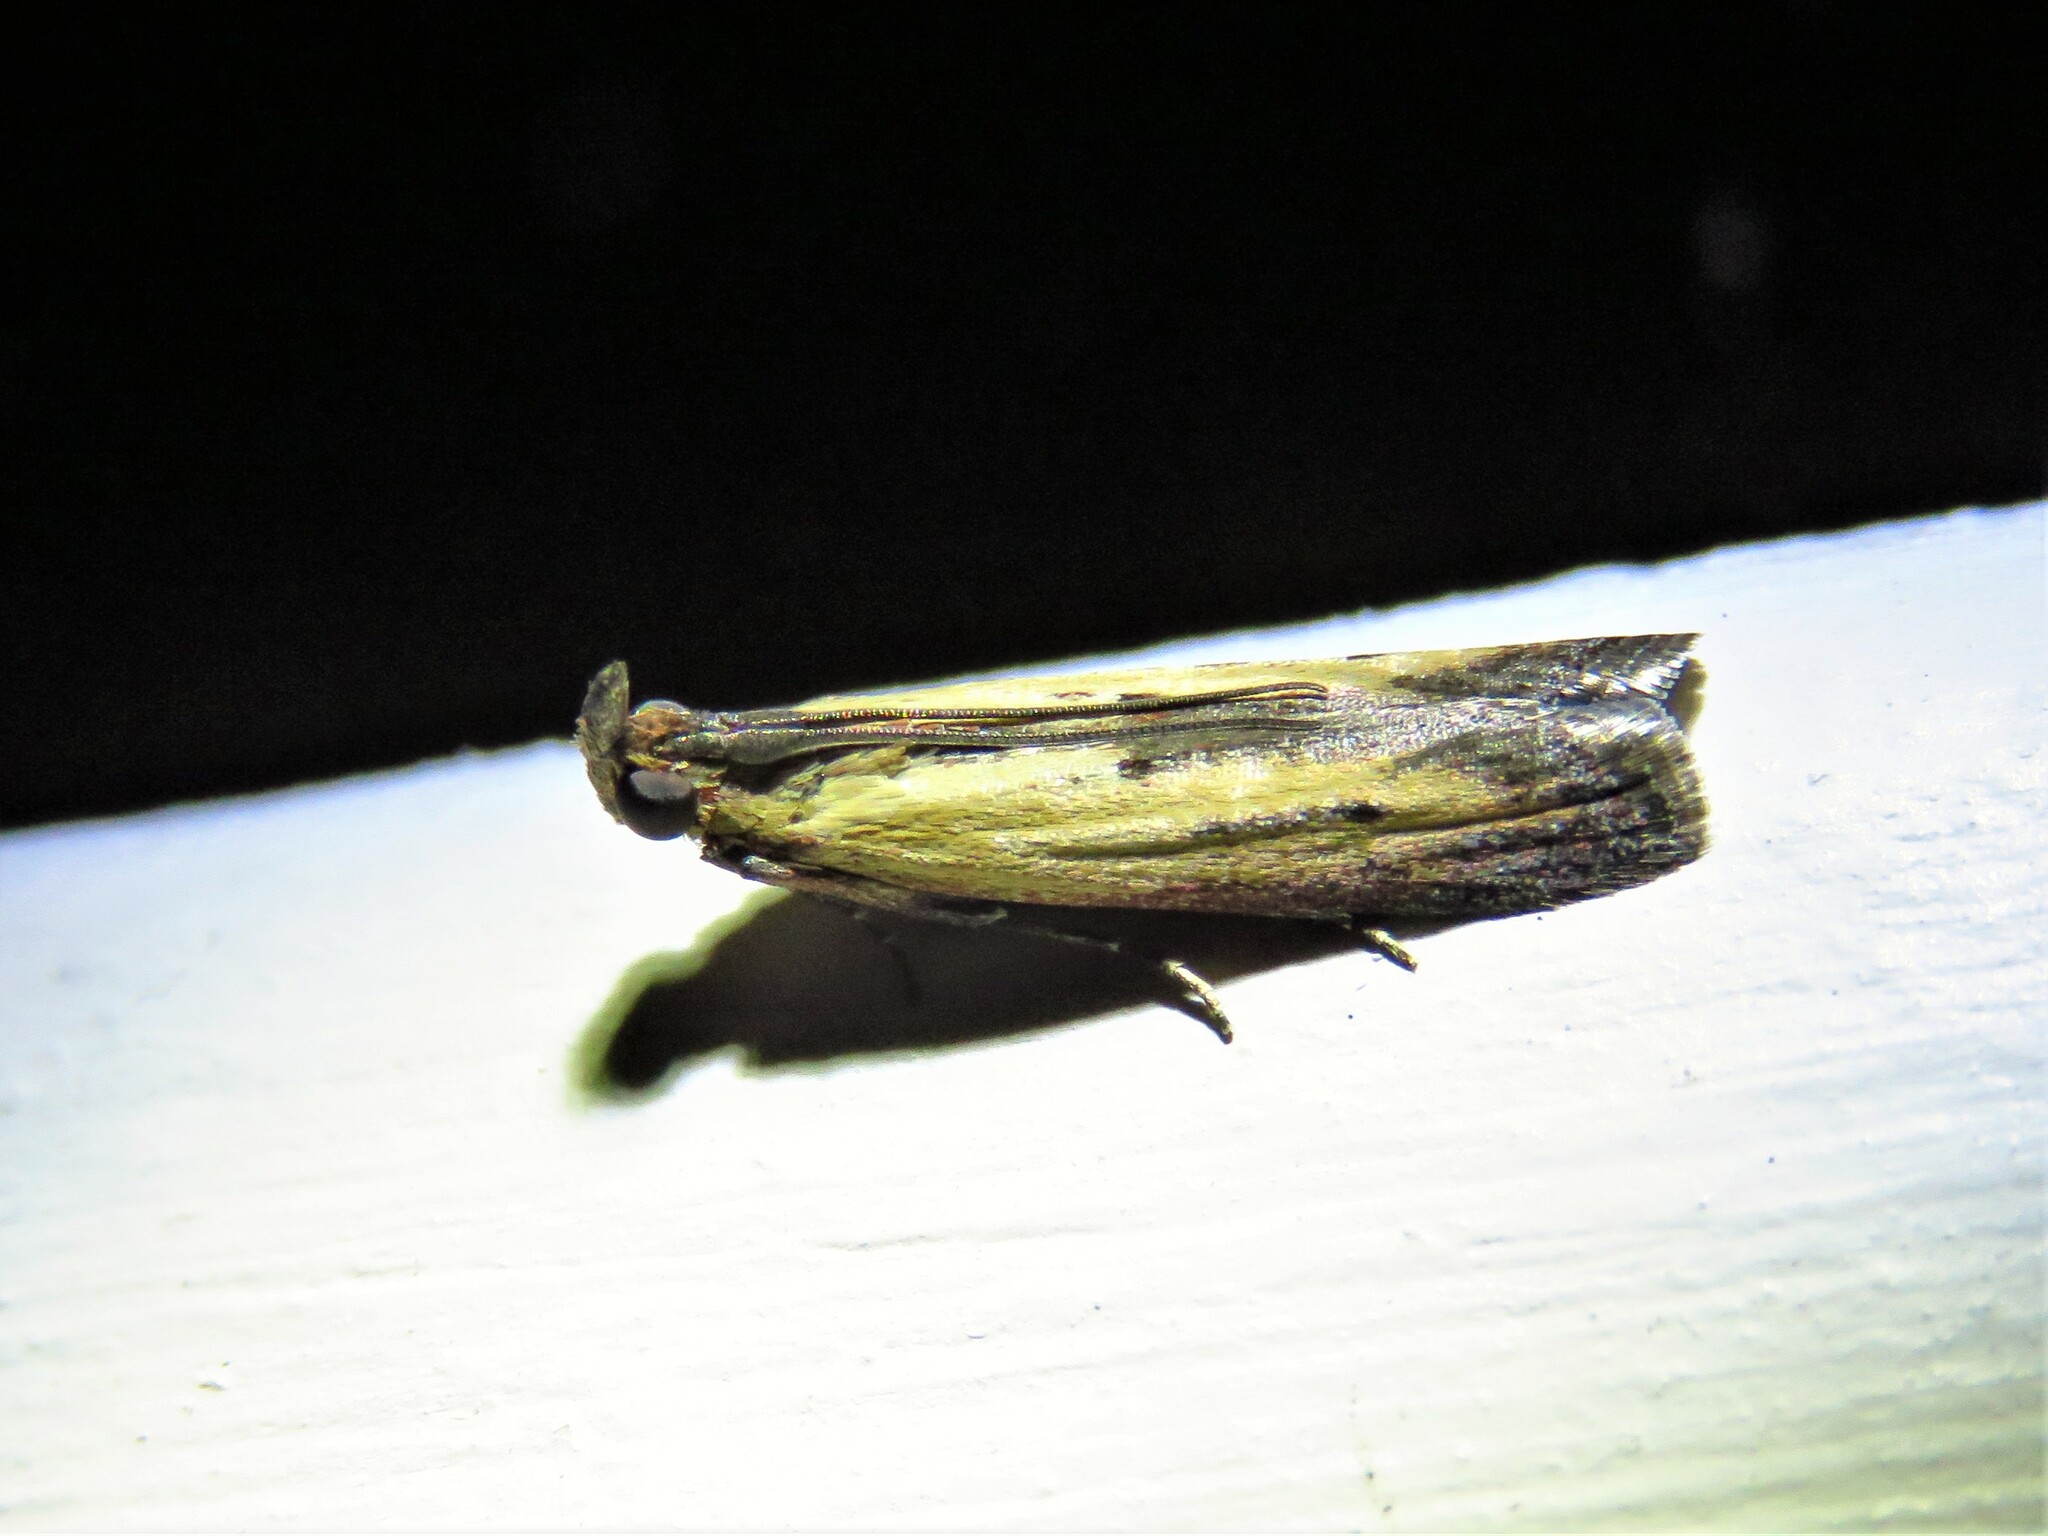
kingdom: Animalia
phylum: Arthropoda
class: Insecta
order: Lepidoptera
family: Pyralidae
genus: Elasmopalpus
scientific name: Elasmopalpus lignosella
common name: Lesser cornstalk borer
